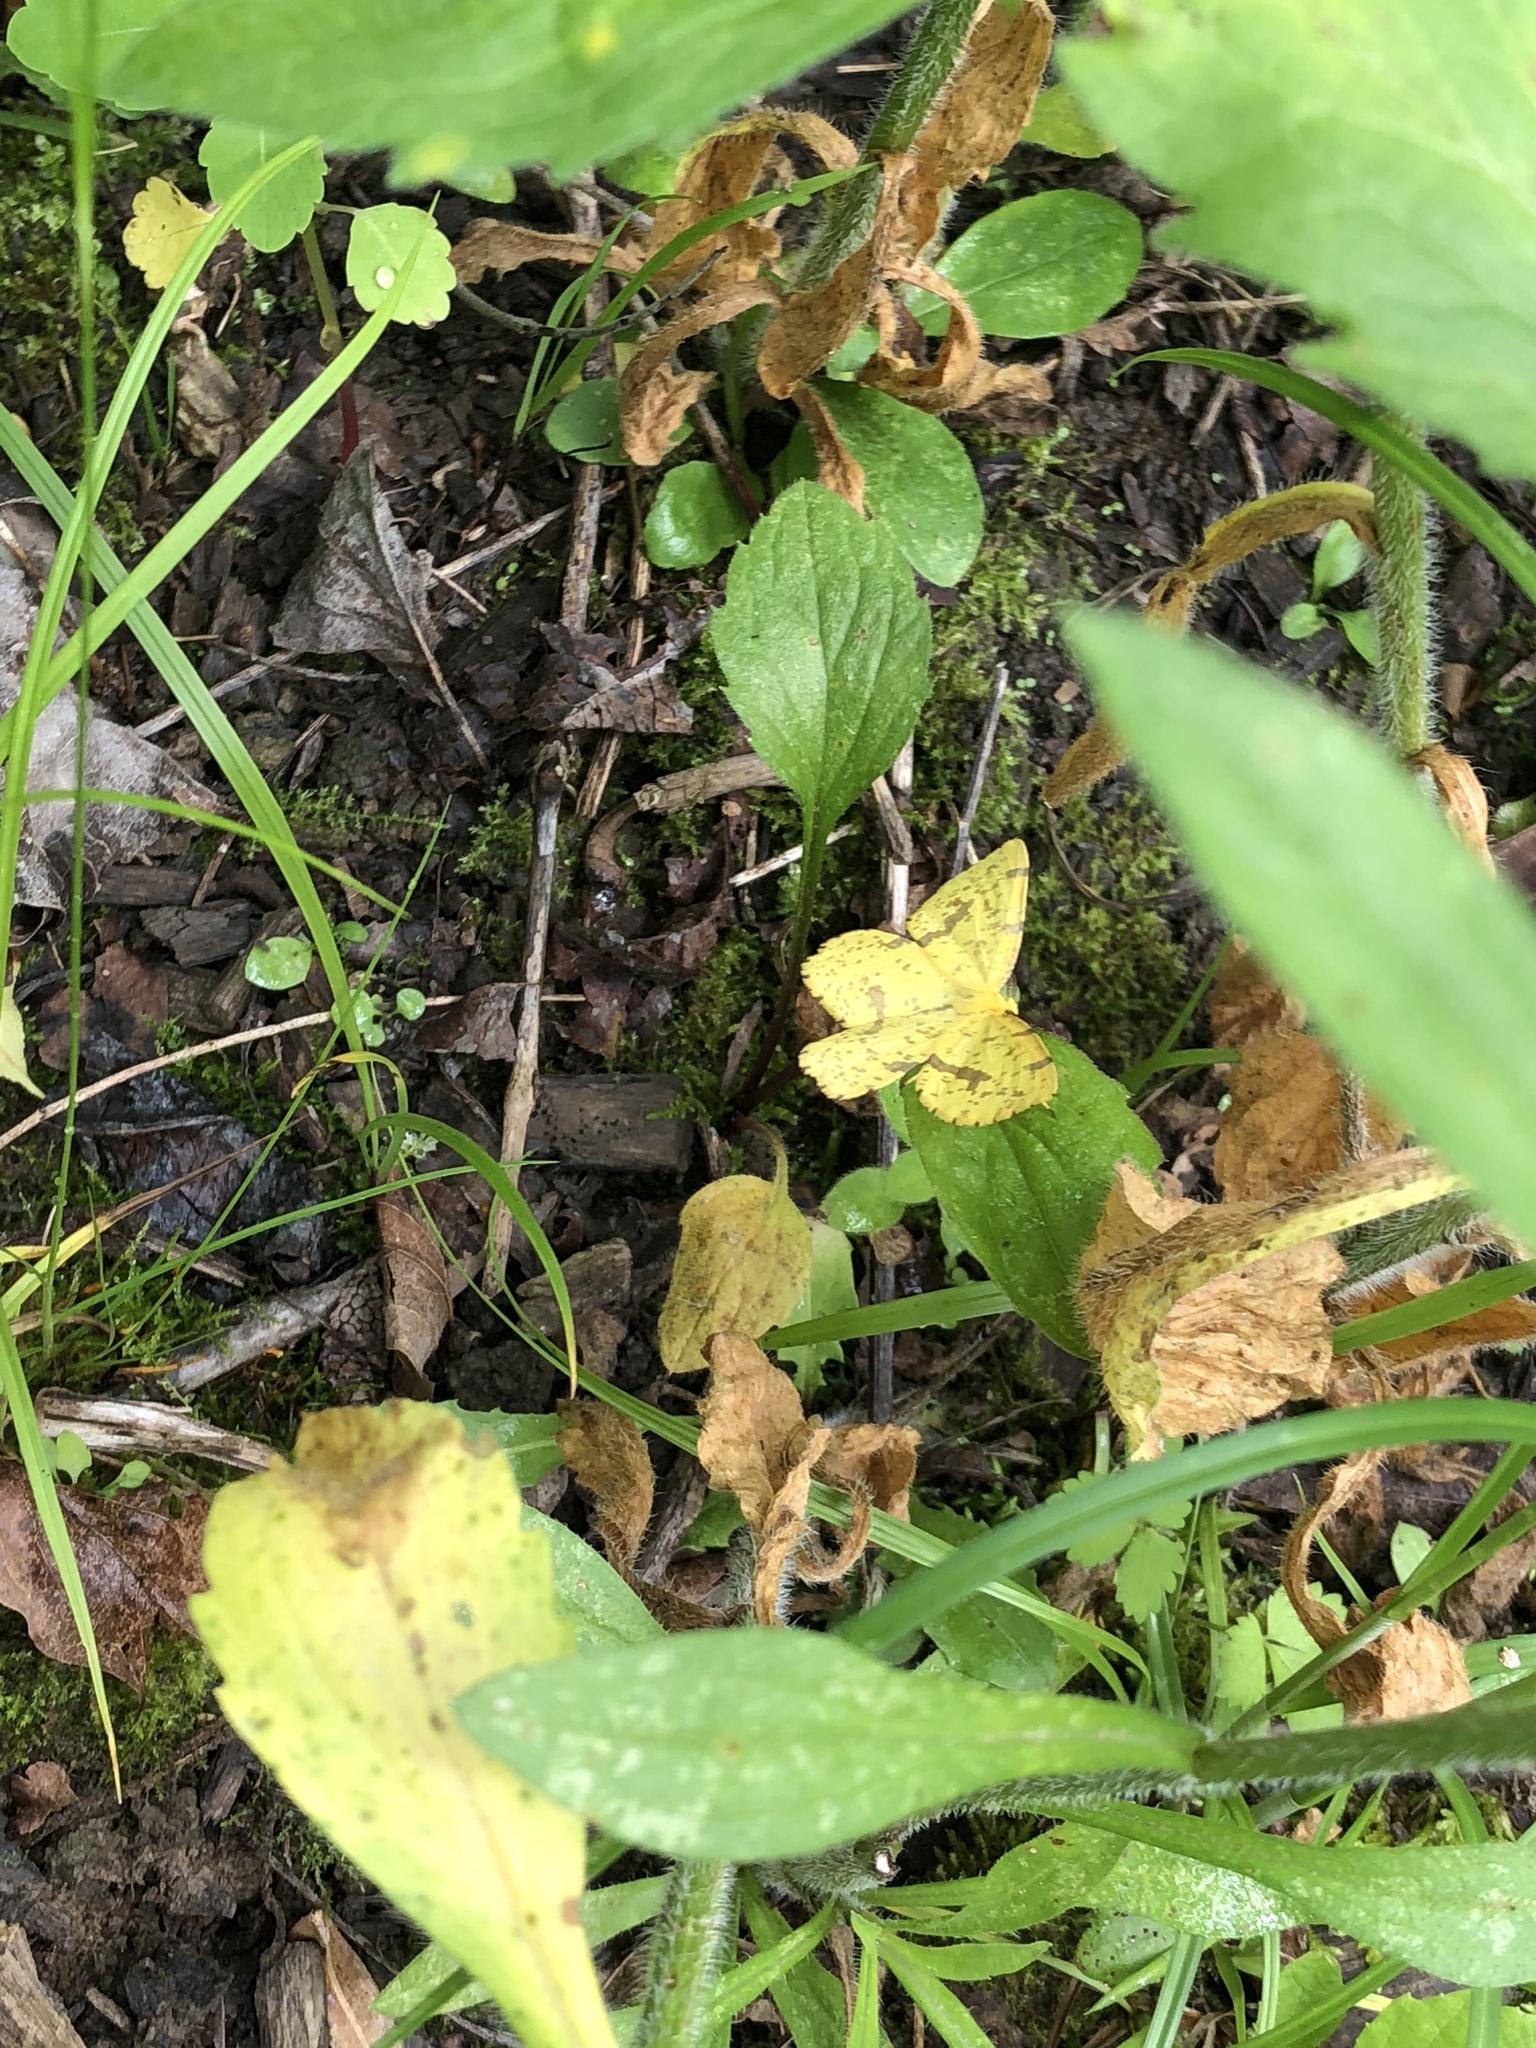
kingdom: Animalia
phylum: Arthropoda
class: Insecta
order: Lepidoptera
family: Geometridae
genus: Xanthotype
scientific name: Xanthotype
